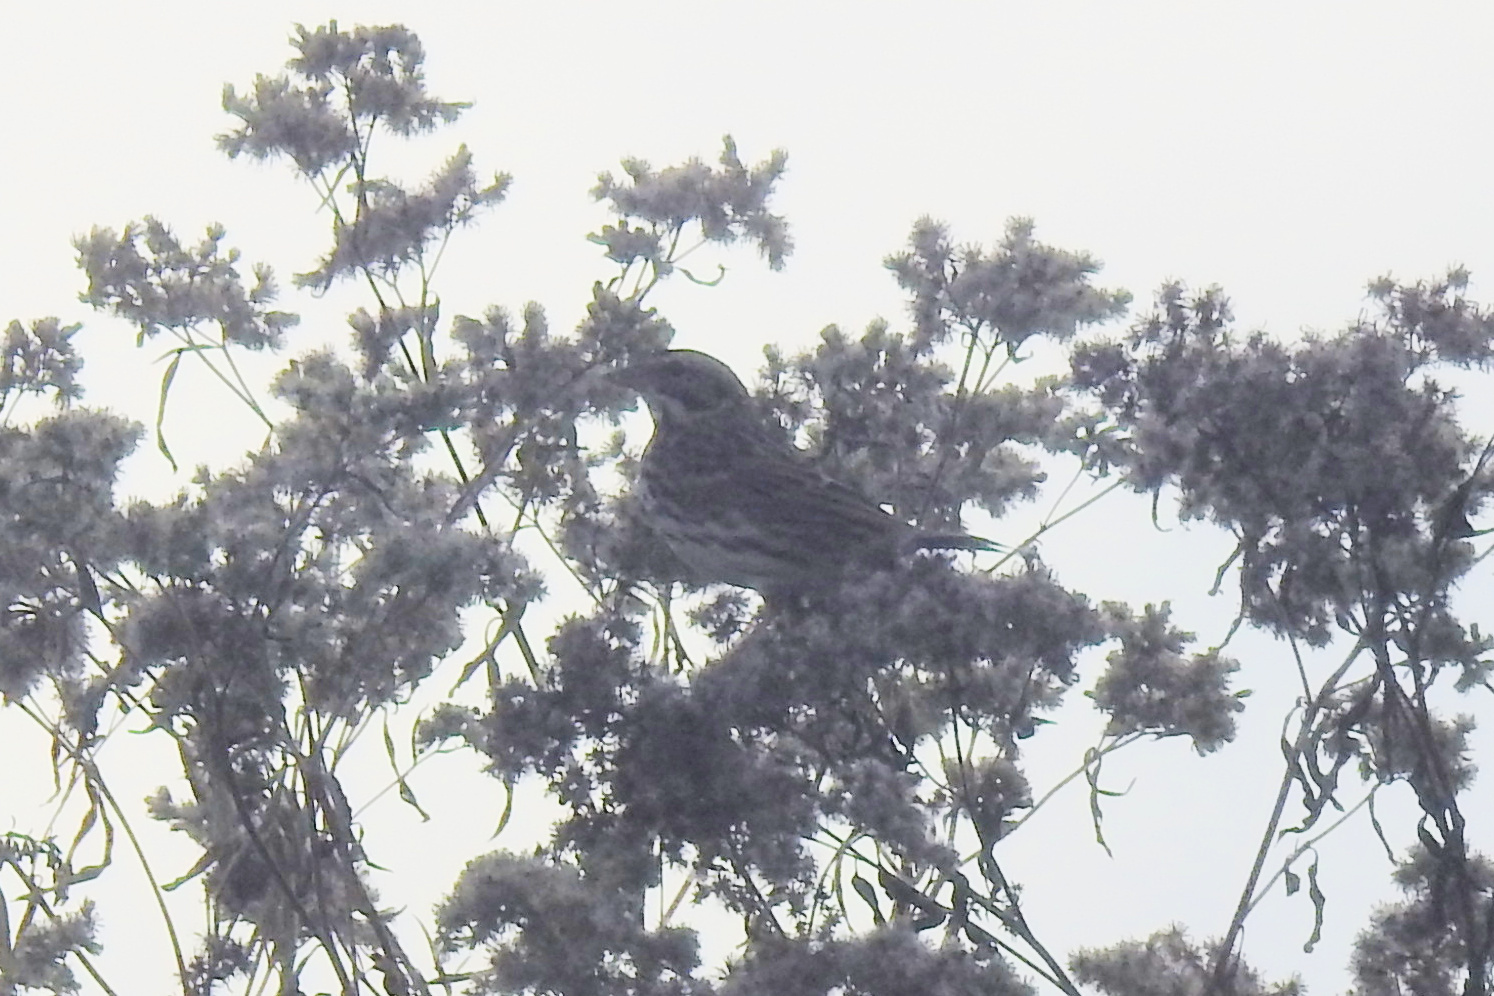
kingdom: Animalia
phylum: Chordata
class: Aves
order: Passeriformes
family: Passerellidae
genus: Passerculus
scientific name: Passerculus sandwichensis
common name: Savannah sparrow
